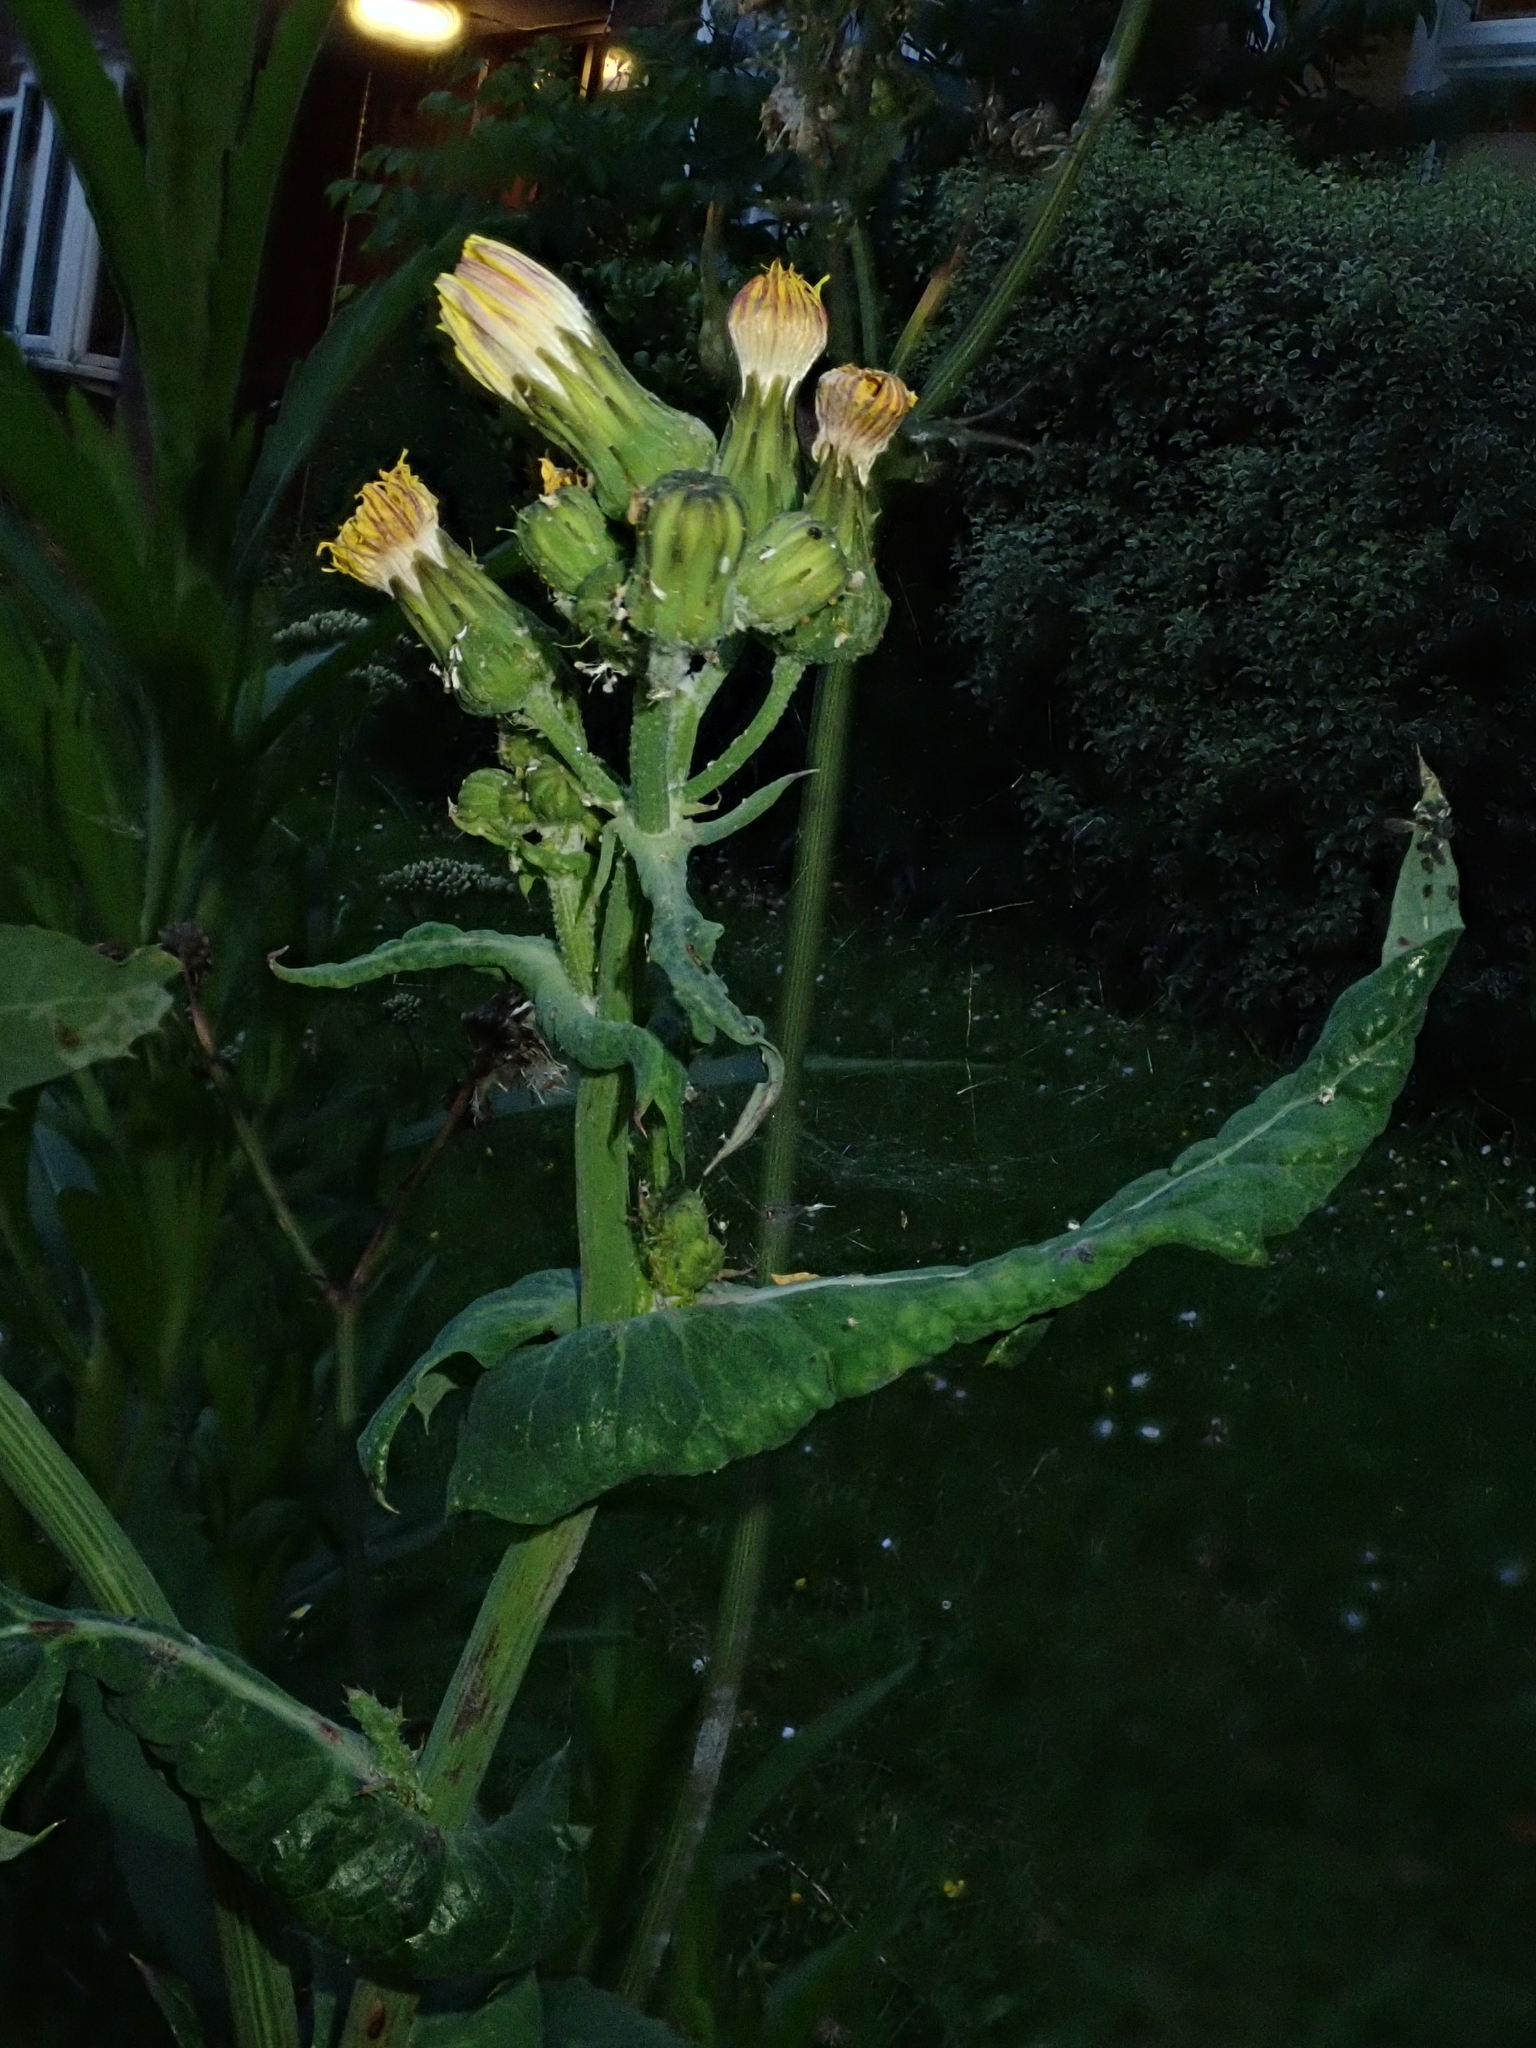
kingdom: Plantae
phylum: Tracheophyta
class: Magnoliopsida
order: Asterales
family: Asteraceae
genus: Sonchus
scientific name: Sonchus oleraceus
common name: Common sowthistle
